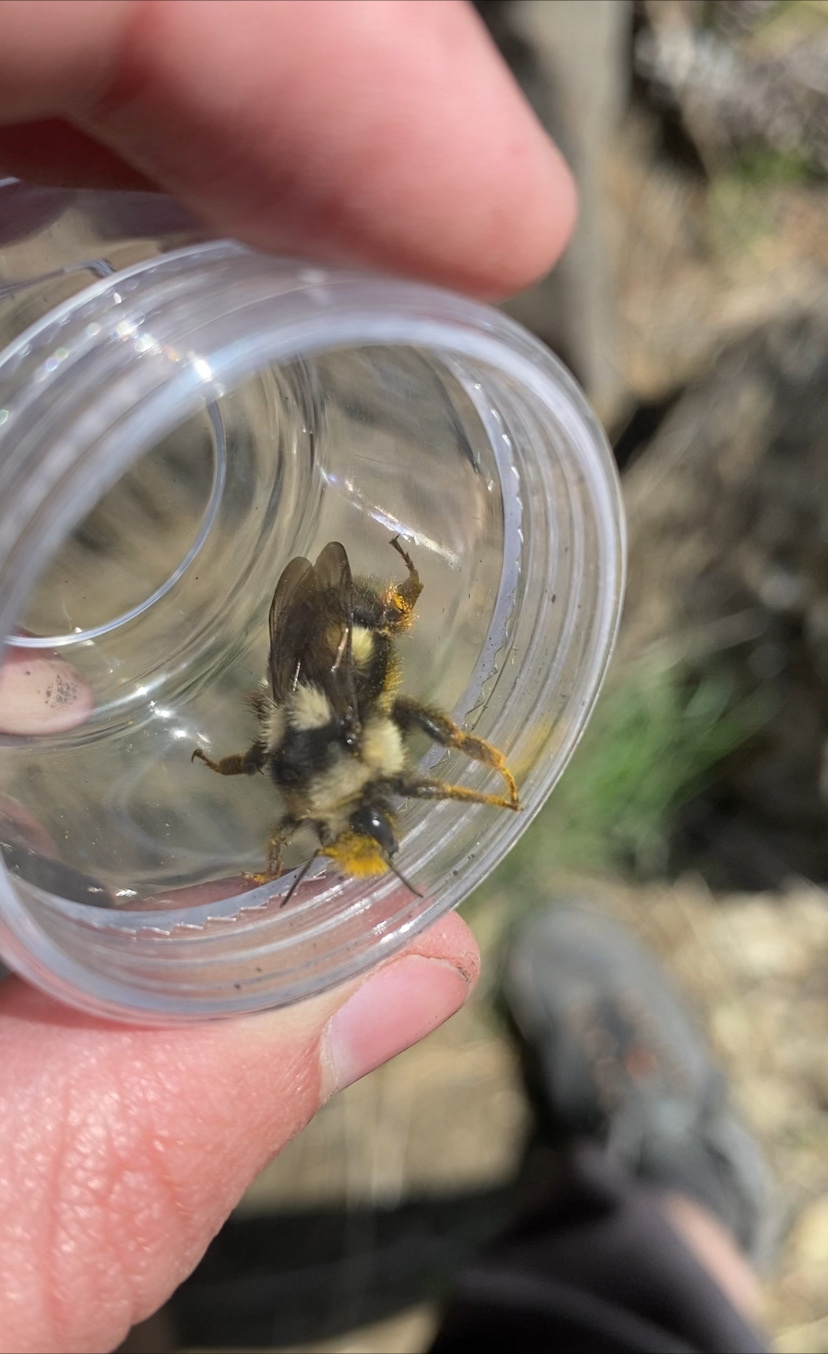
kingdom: Animalia
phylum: Arthropoda
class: Insecta
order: Hymenoptera
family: Apidae
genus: Bombus
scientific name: Bombus vancouverensis
